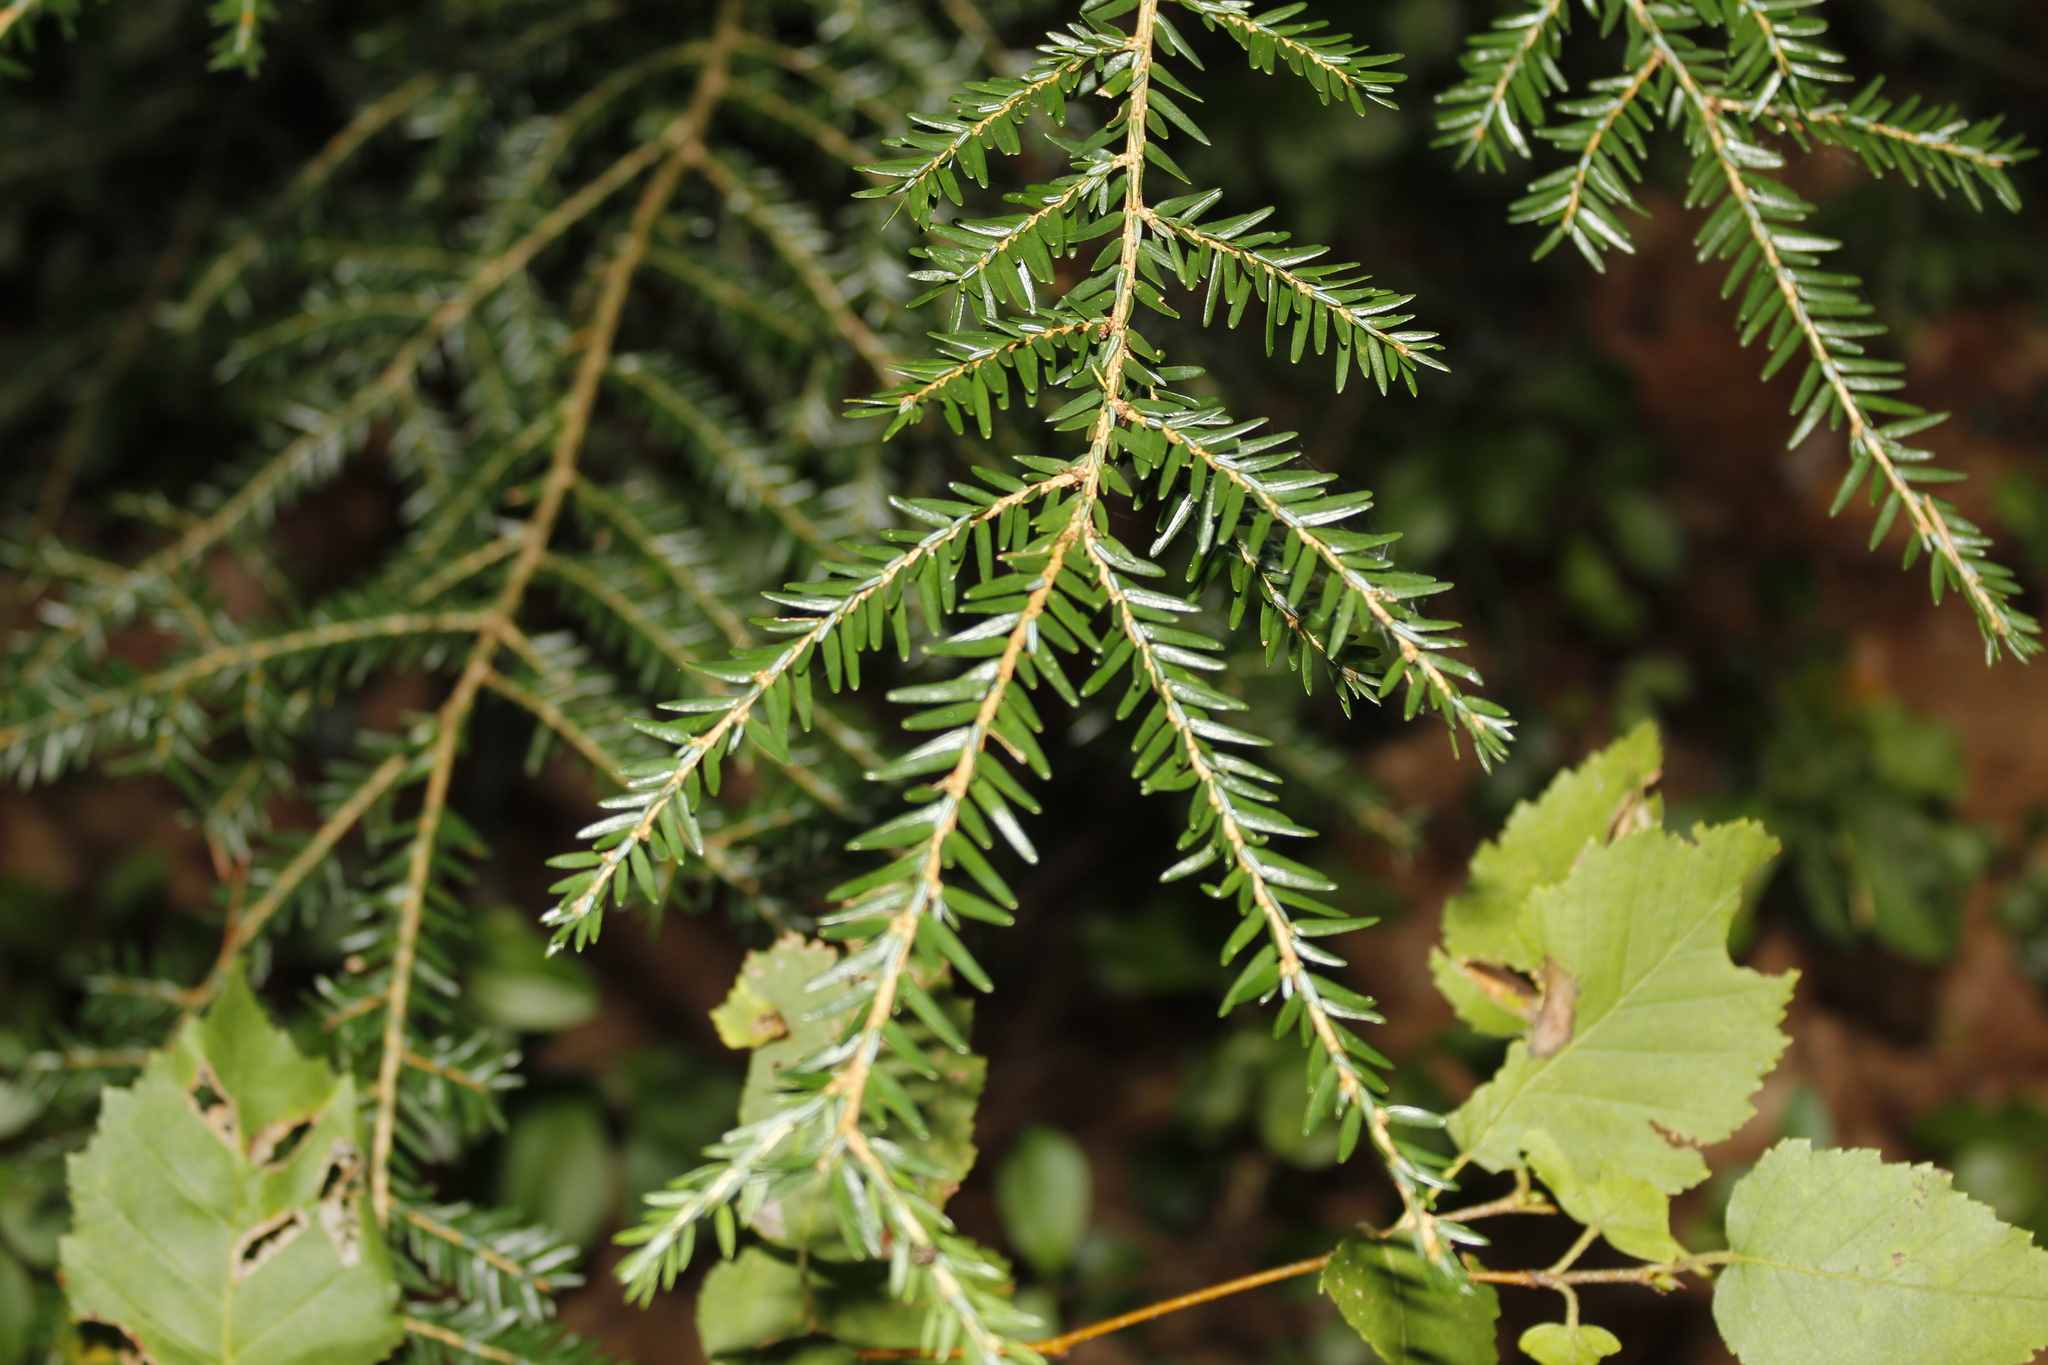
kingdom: Plantae
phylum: Tracheophyta
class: Pinopsida
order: Pinales
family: Pinaceae
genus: Tsuga
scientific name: Tsuga canadensis
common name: Eastern hemlock
